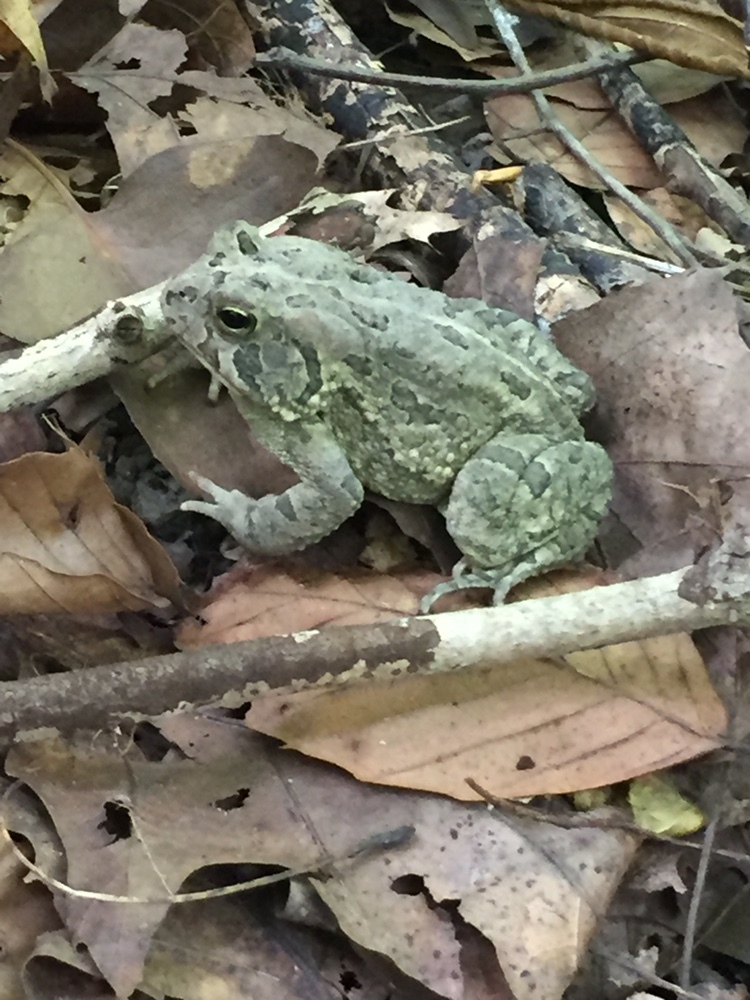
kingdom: Animalia
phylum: Chordata
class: Amphibia
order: Anura
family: Bufonidae
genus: Anaxyrus
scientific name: Anaxyrus fowleri
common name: Fowler's toad
